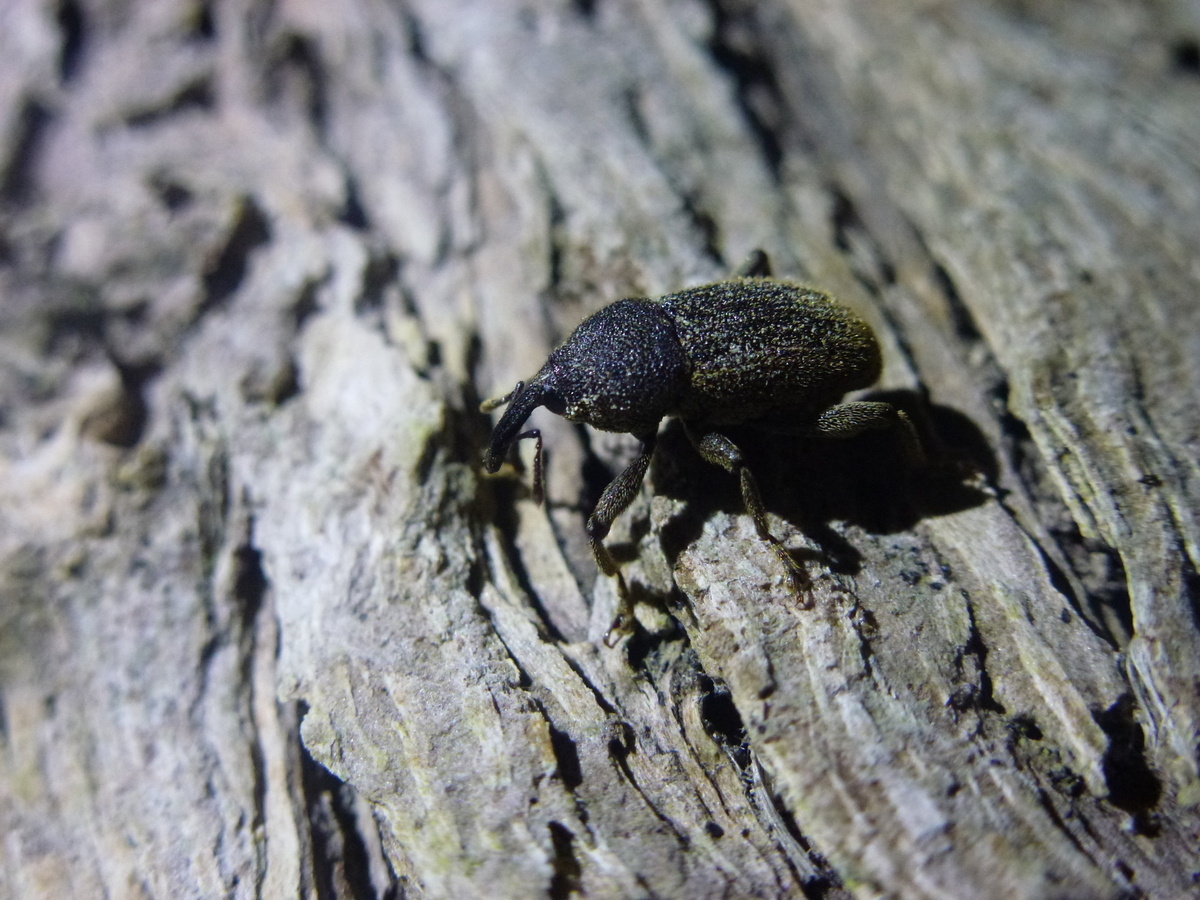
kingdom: Animalia
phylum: Arthropoda
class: Insecta
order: Coleoptera
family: Curculionidae
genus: Strongylopterus
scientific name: Strongylopterus
